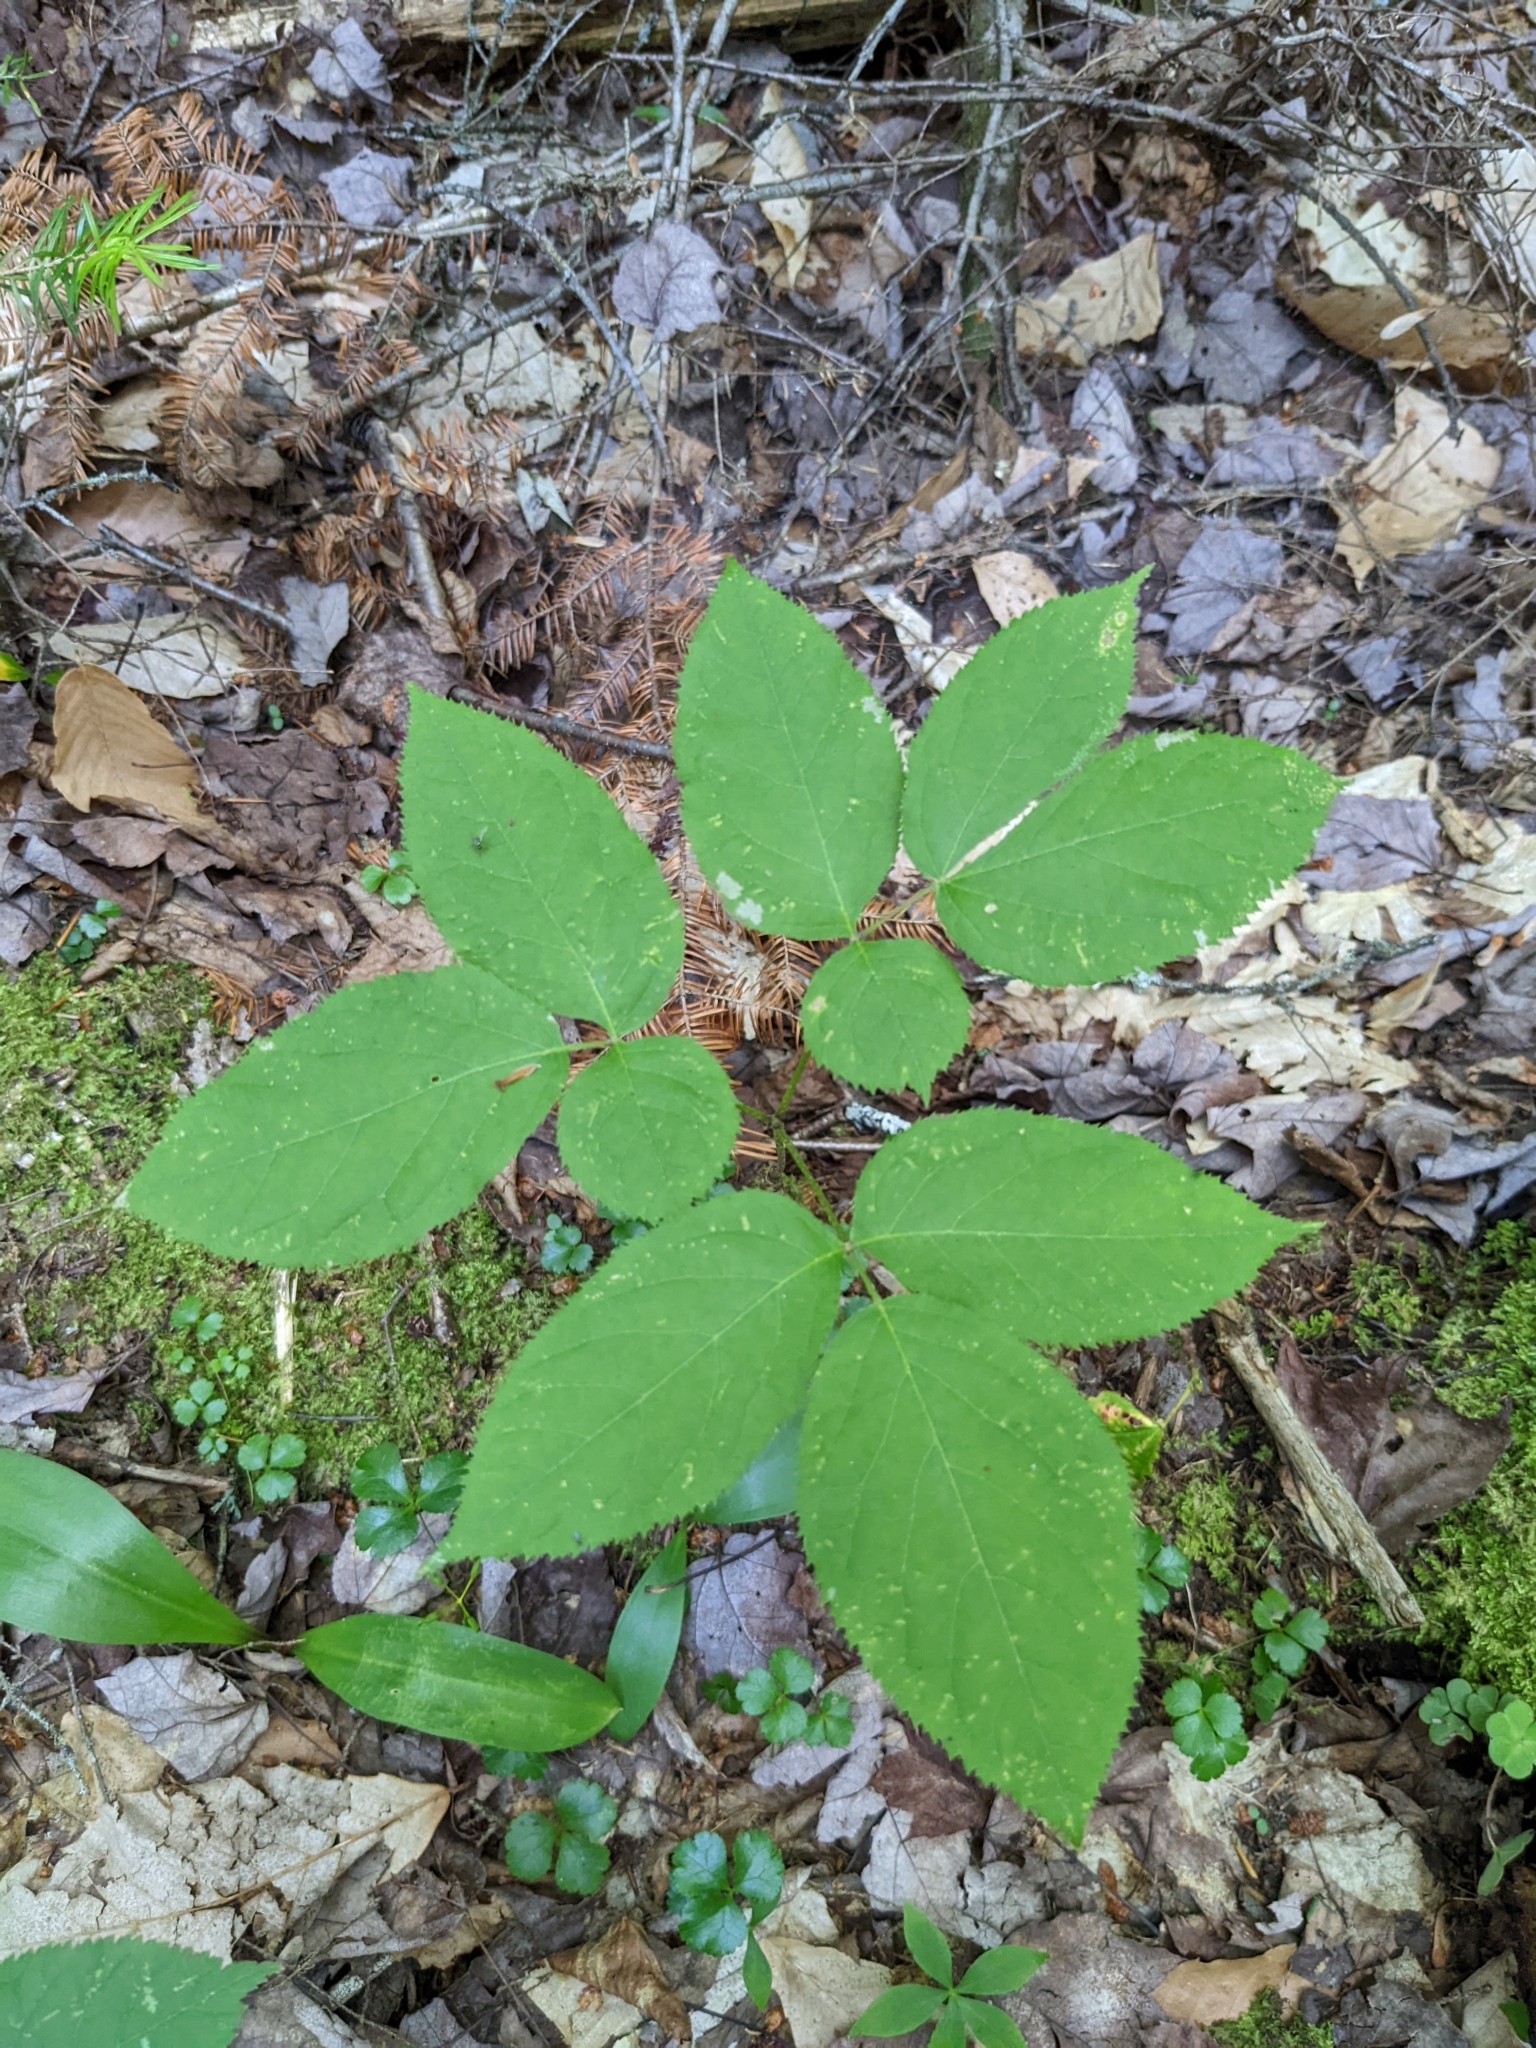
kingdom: Plantae
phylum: Tracheophyta
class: Magnoliopsida
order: Apiales
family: Araliaceae
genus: Aralia
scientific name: Aralia nudicaulis
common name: Wild sarsaparilla
